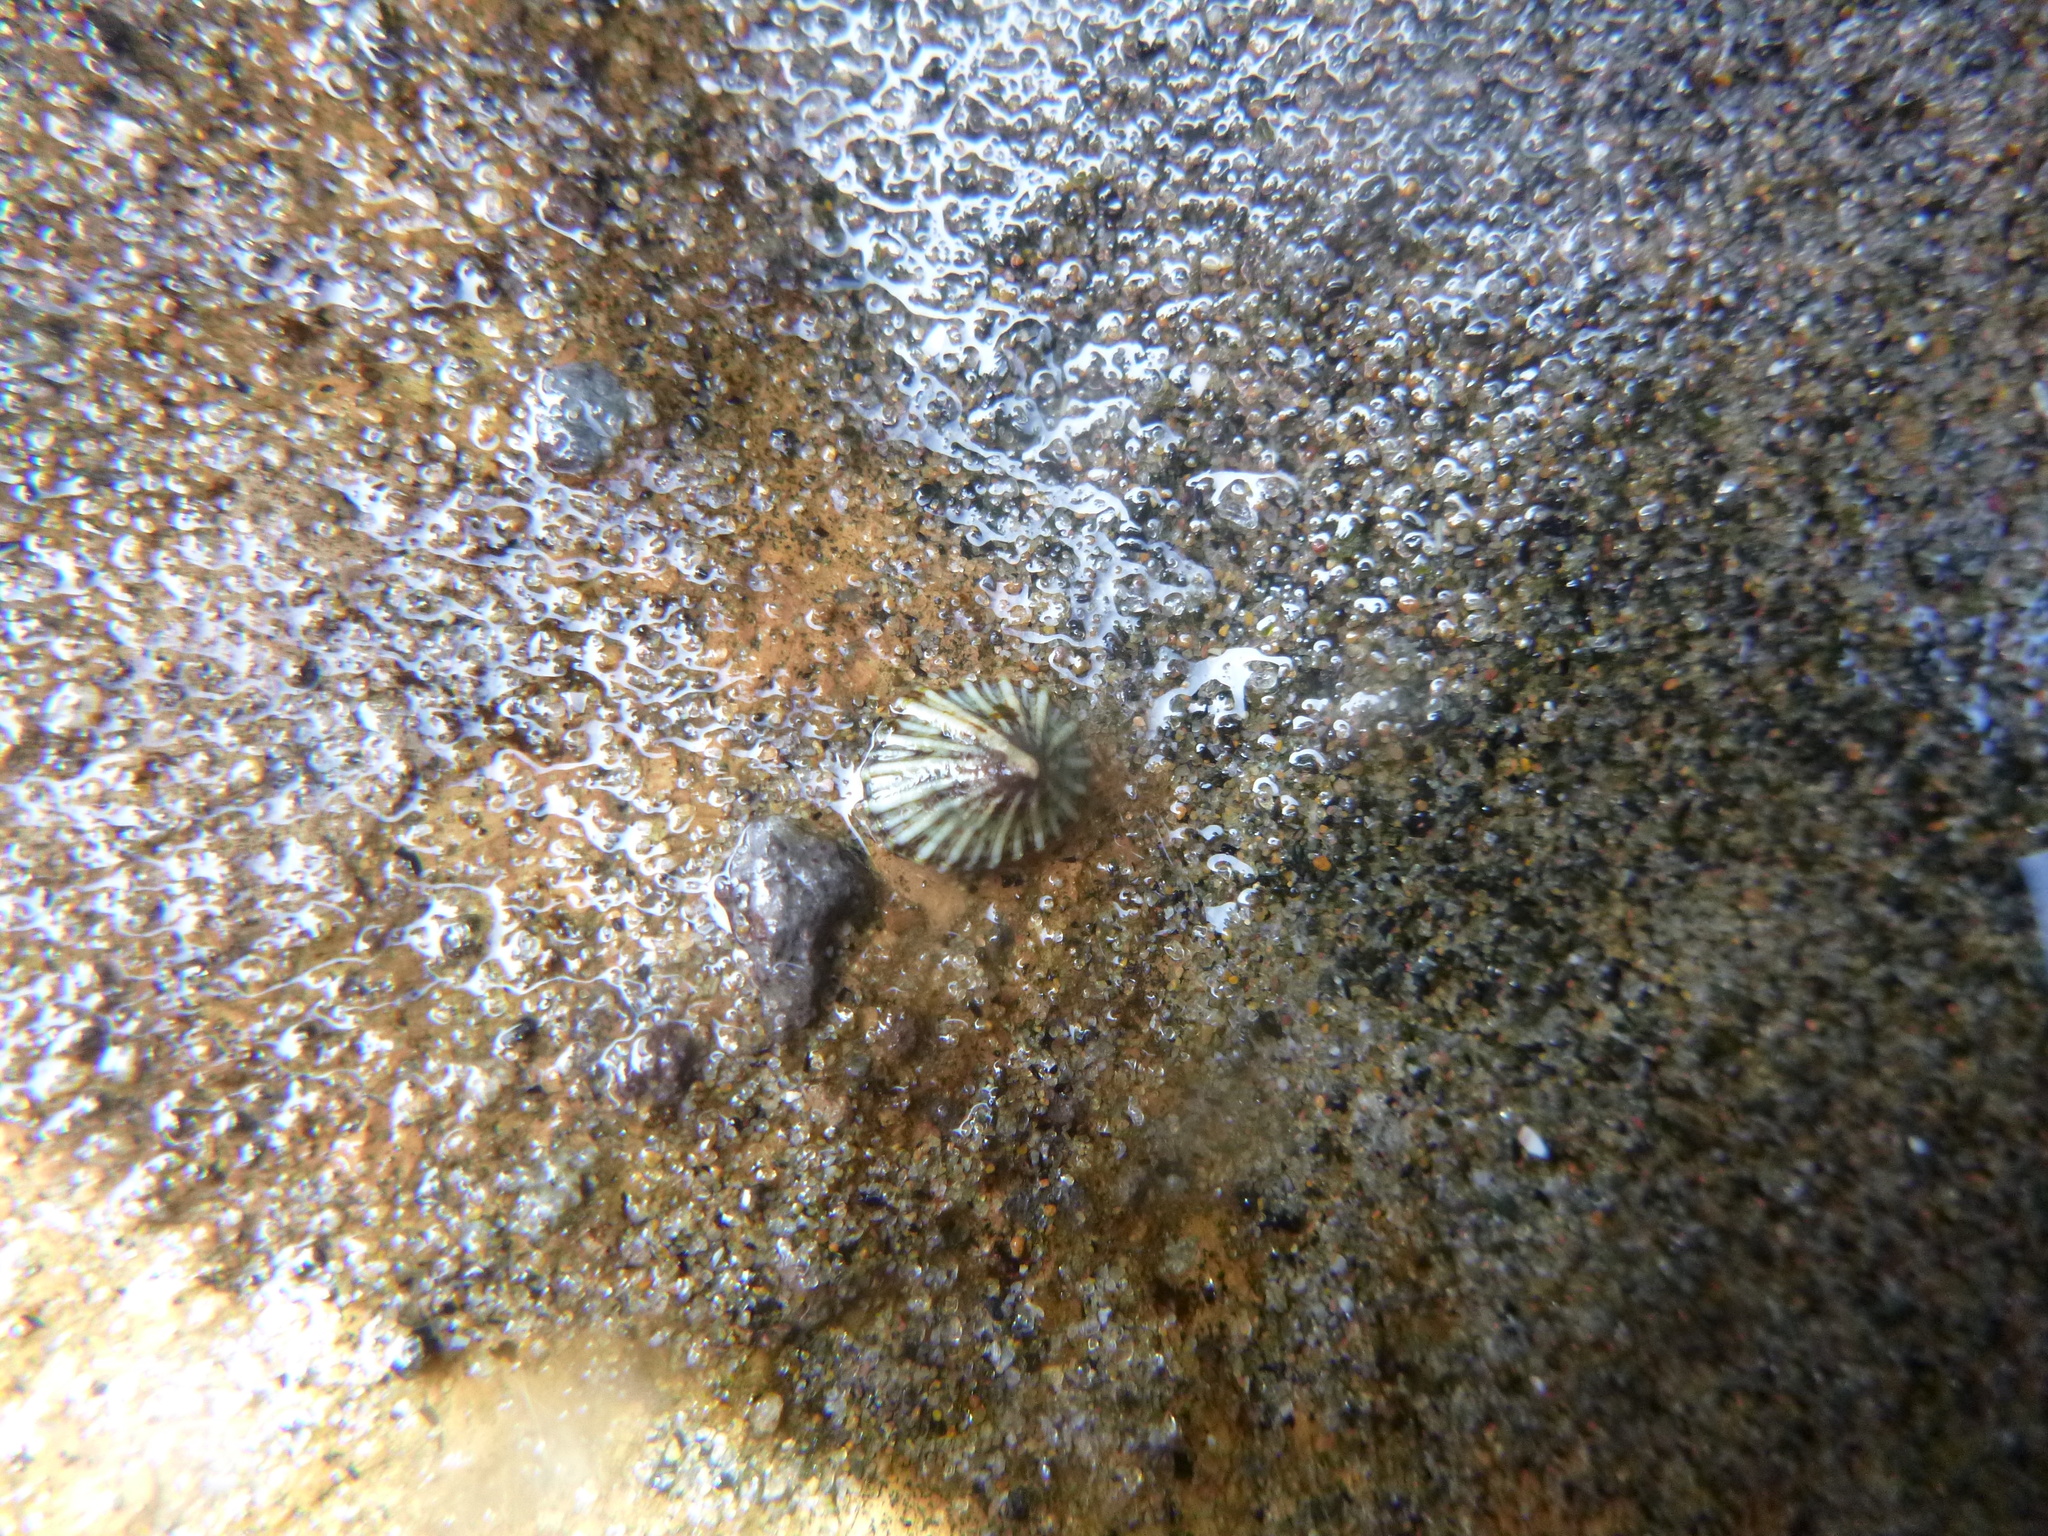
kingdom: Animalia
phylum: Mollusca
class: Gastropoda
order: Siphonariida
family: Siphonariidae
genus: Siphonaria
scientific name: Siphonaria australis
